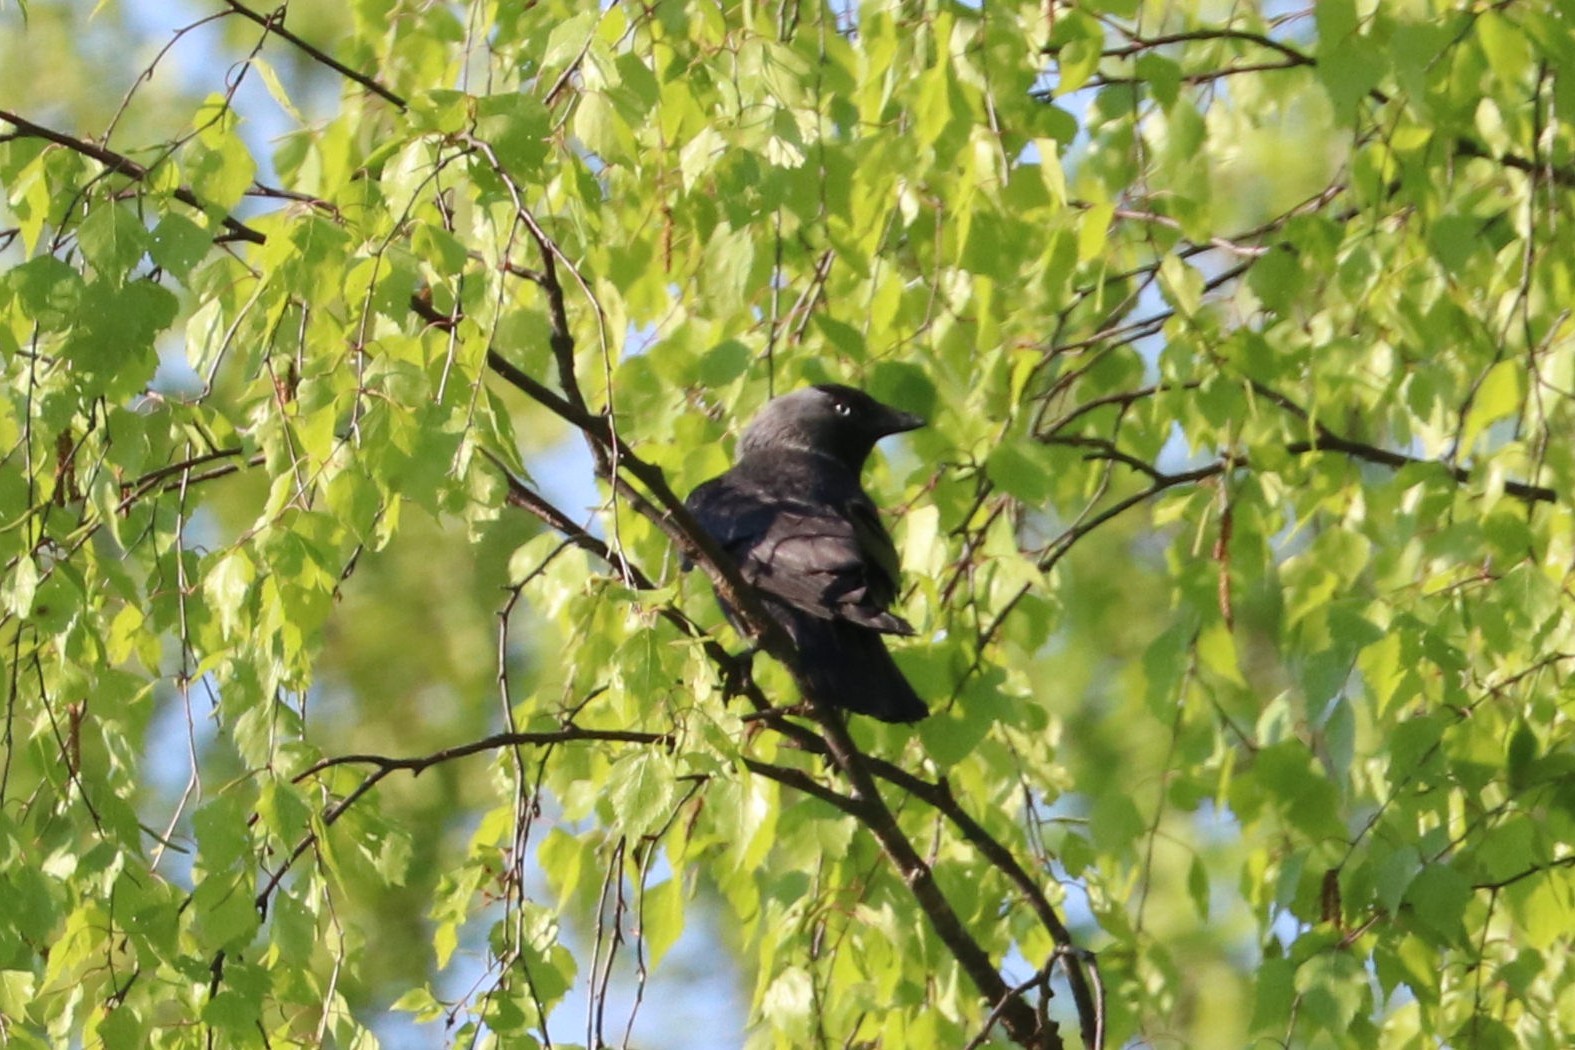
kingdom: Animalia
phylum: Chordata
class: Aves
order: Passeriformes
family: Corvidae
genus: Coloeus
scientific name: Coloeus monedula
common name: Western jackdaw
